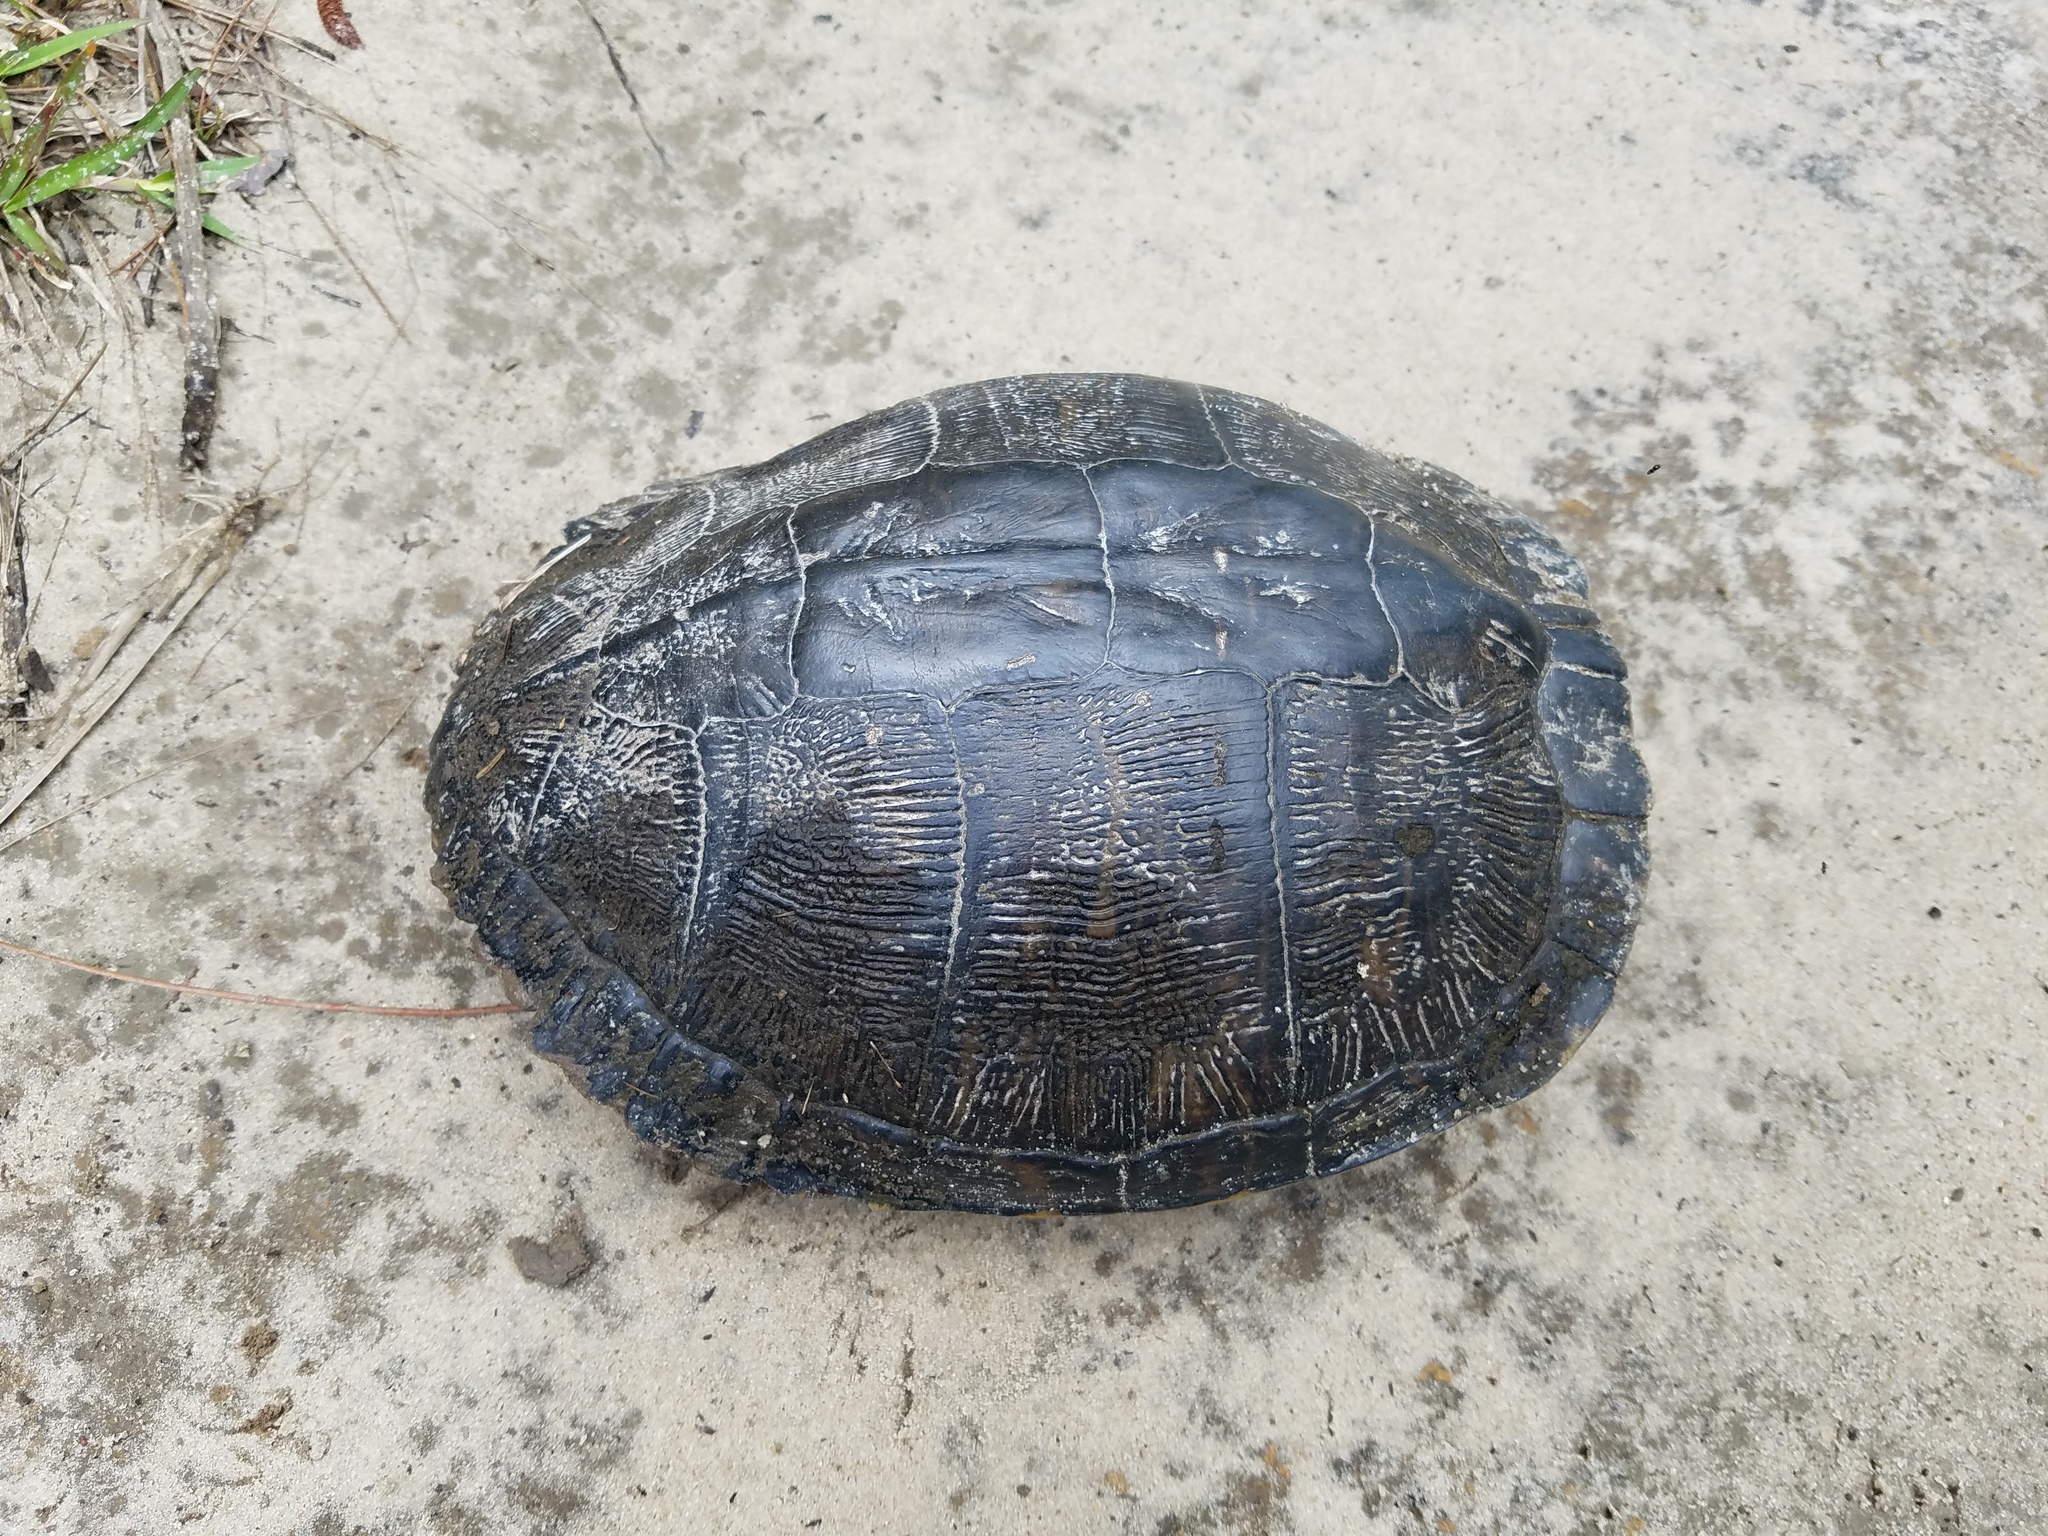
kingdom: Animalia
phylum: Chordata
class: Testudines
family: Emydidae
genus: Trachemys
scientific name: Trachemys scripta
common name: Slider
